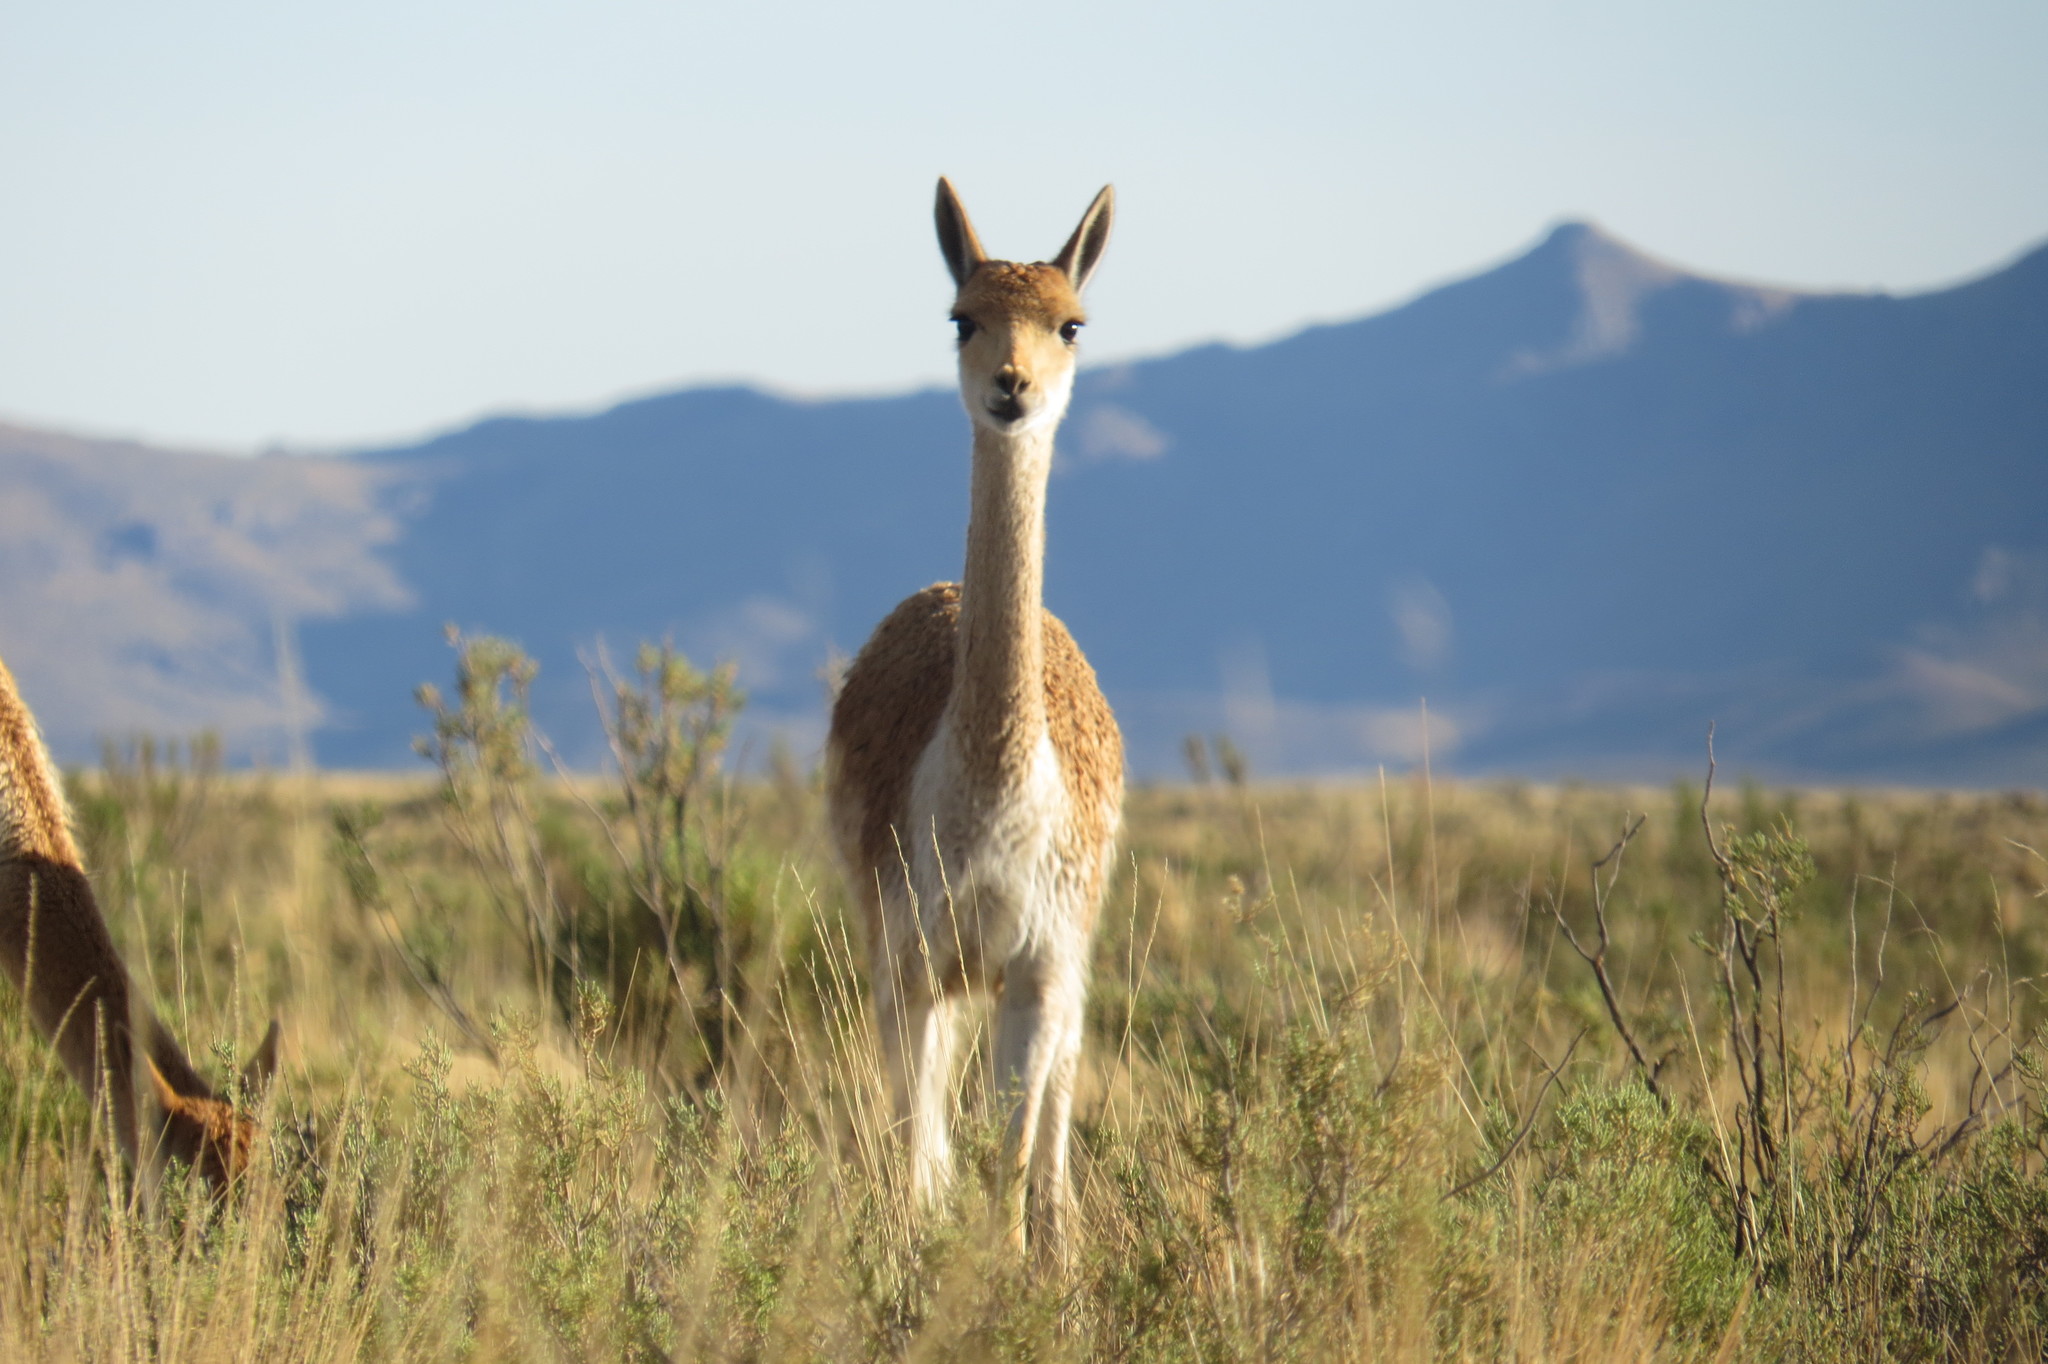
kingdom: Animalia
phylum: Chordata
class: Mammalia
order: Artiodactyla
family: Camelidae
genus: Vicugna
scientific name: Vicugna vicugna
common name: Vicugna
